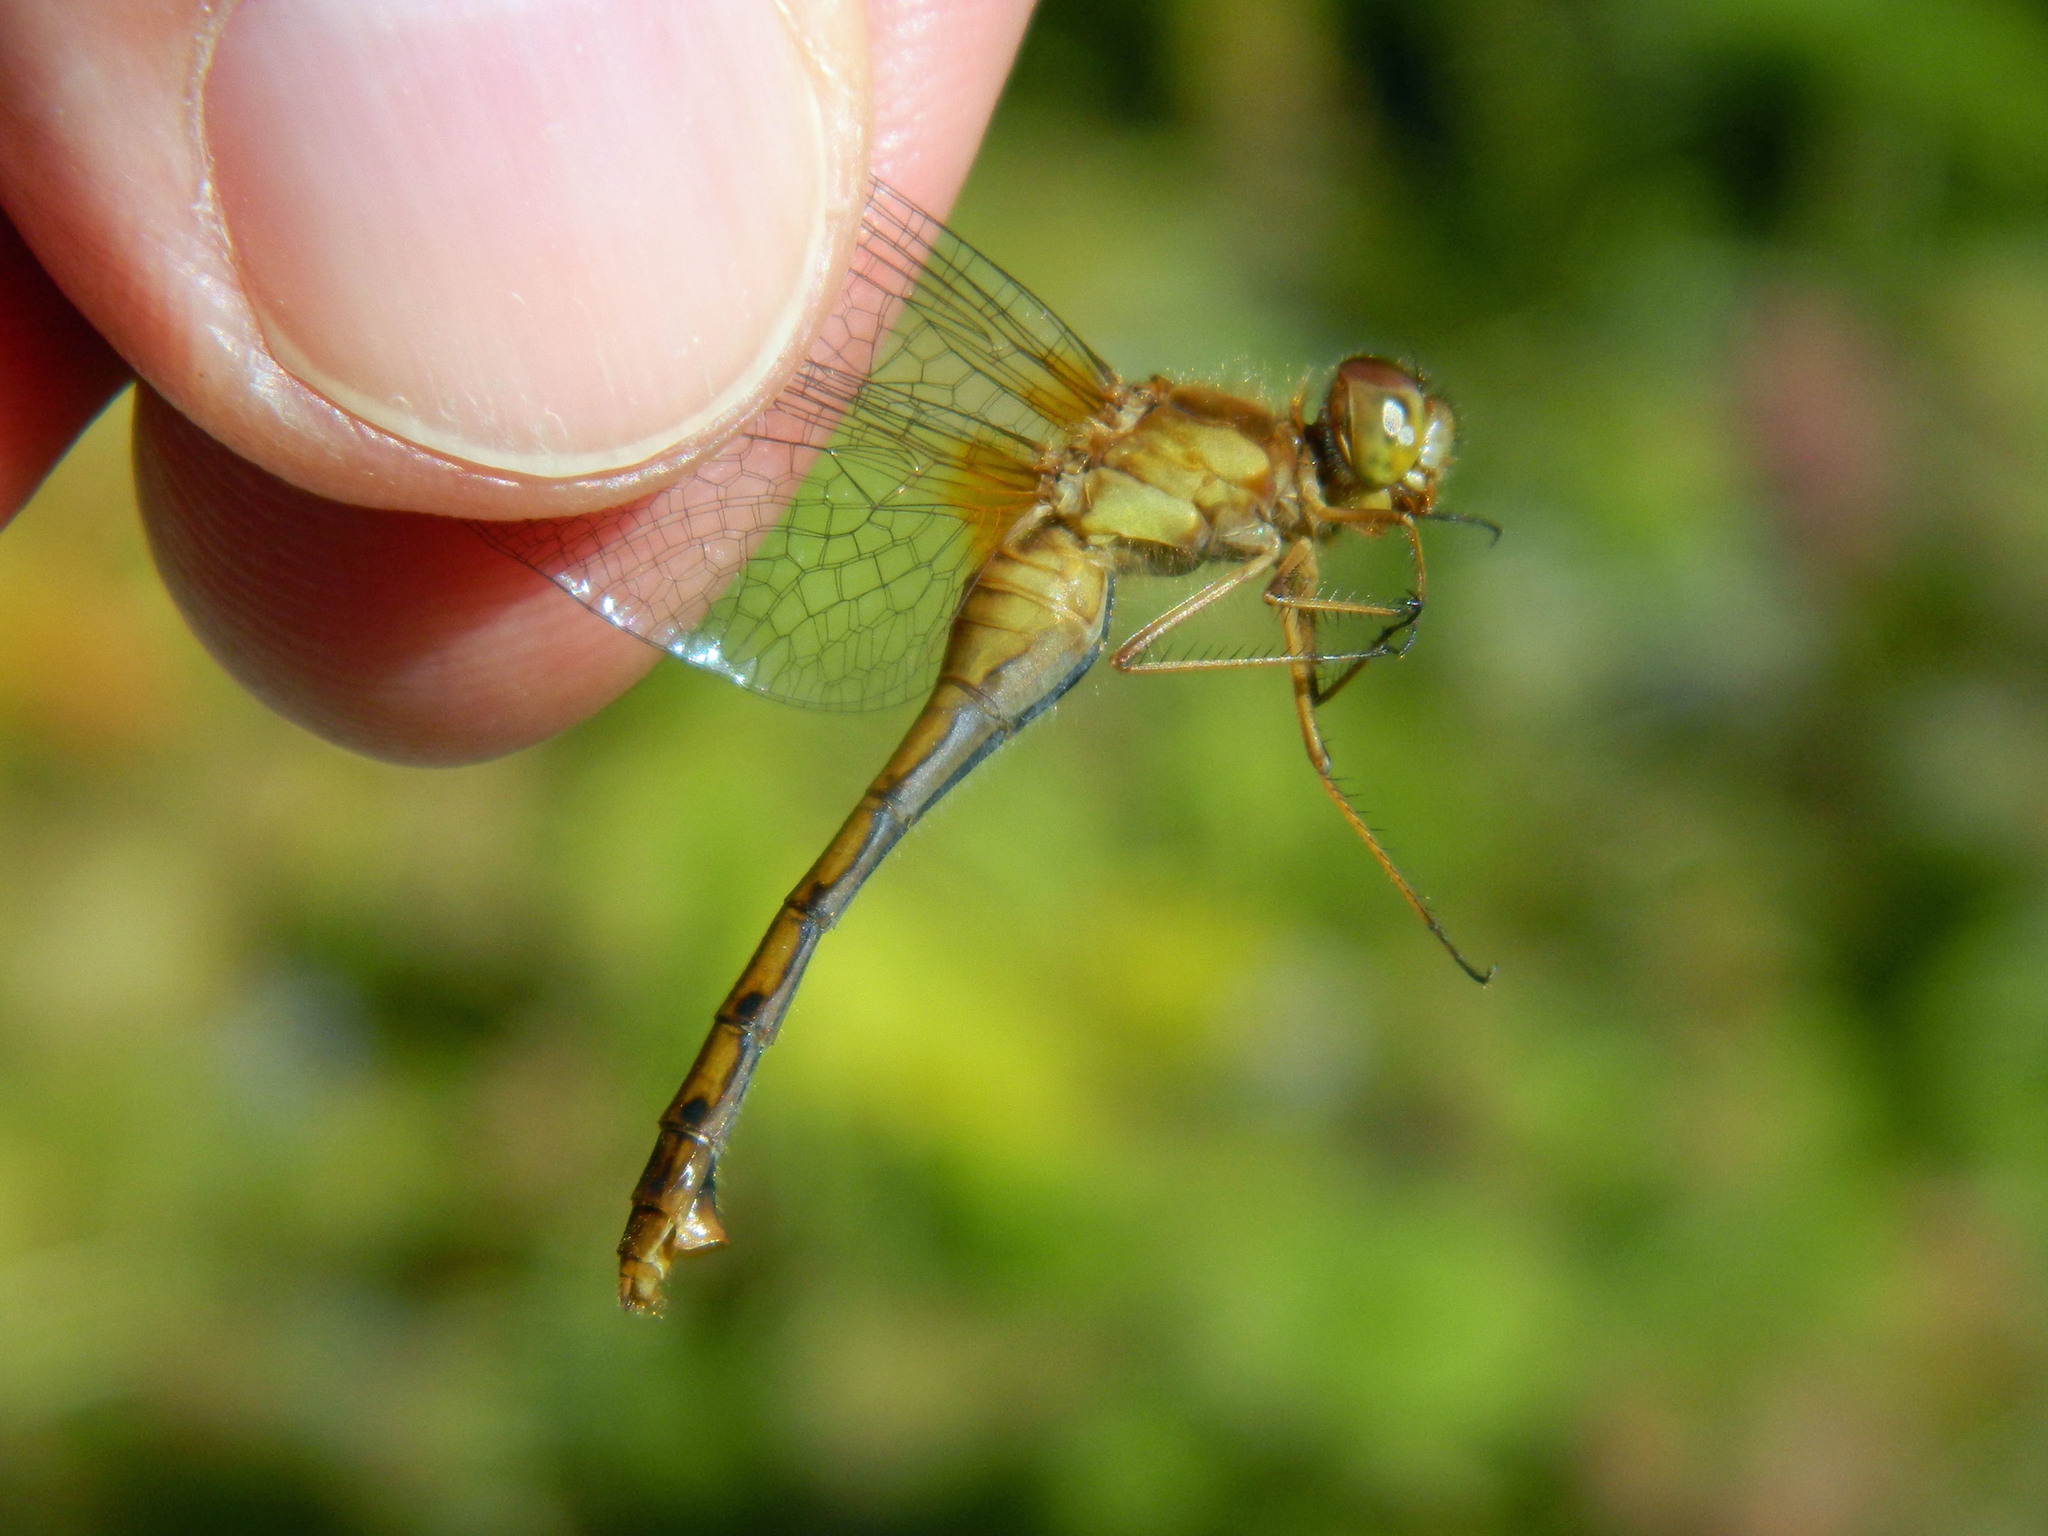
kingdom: Animalia
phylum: Arthropoda
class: Insecta
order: Odonata
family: Libellulidae
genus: Sympetrum
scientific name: Sympetrum vicinum
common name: Autumn meadowhawk
